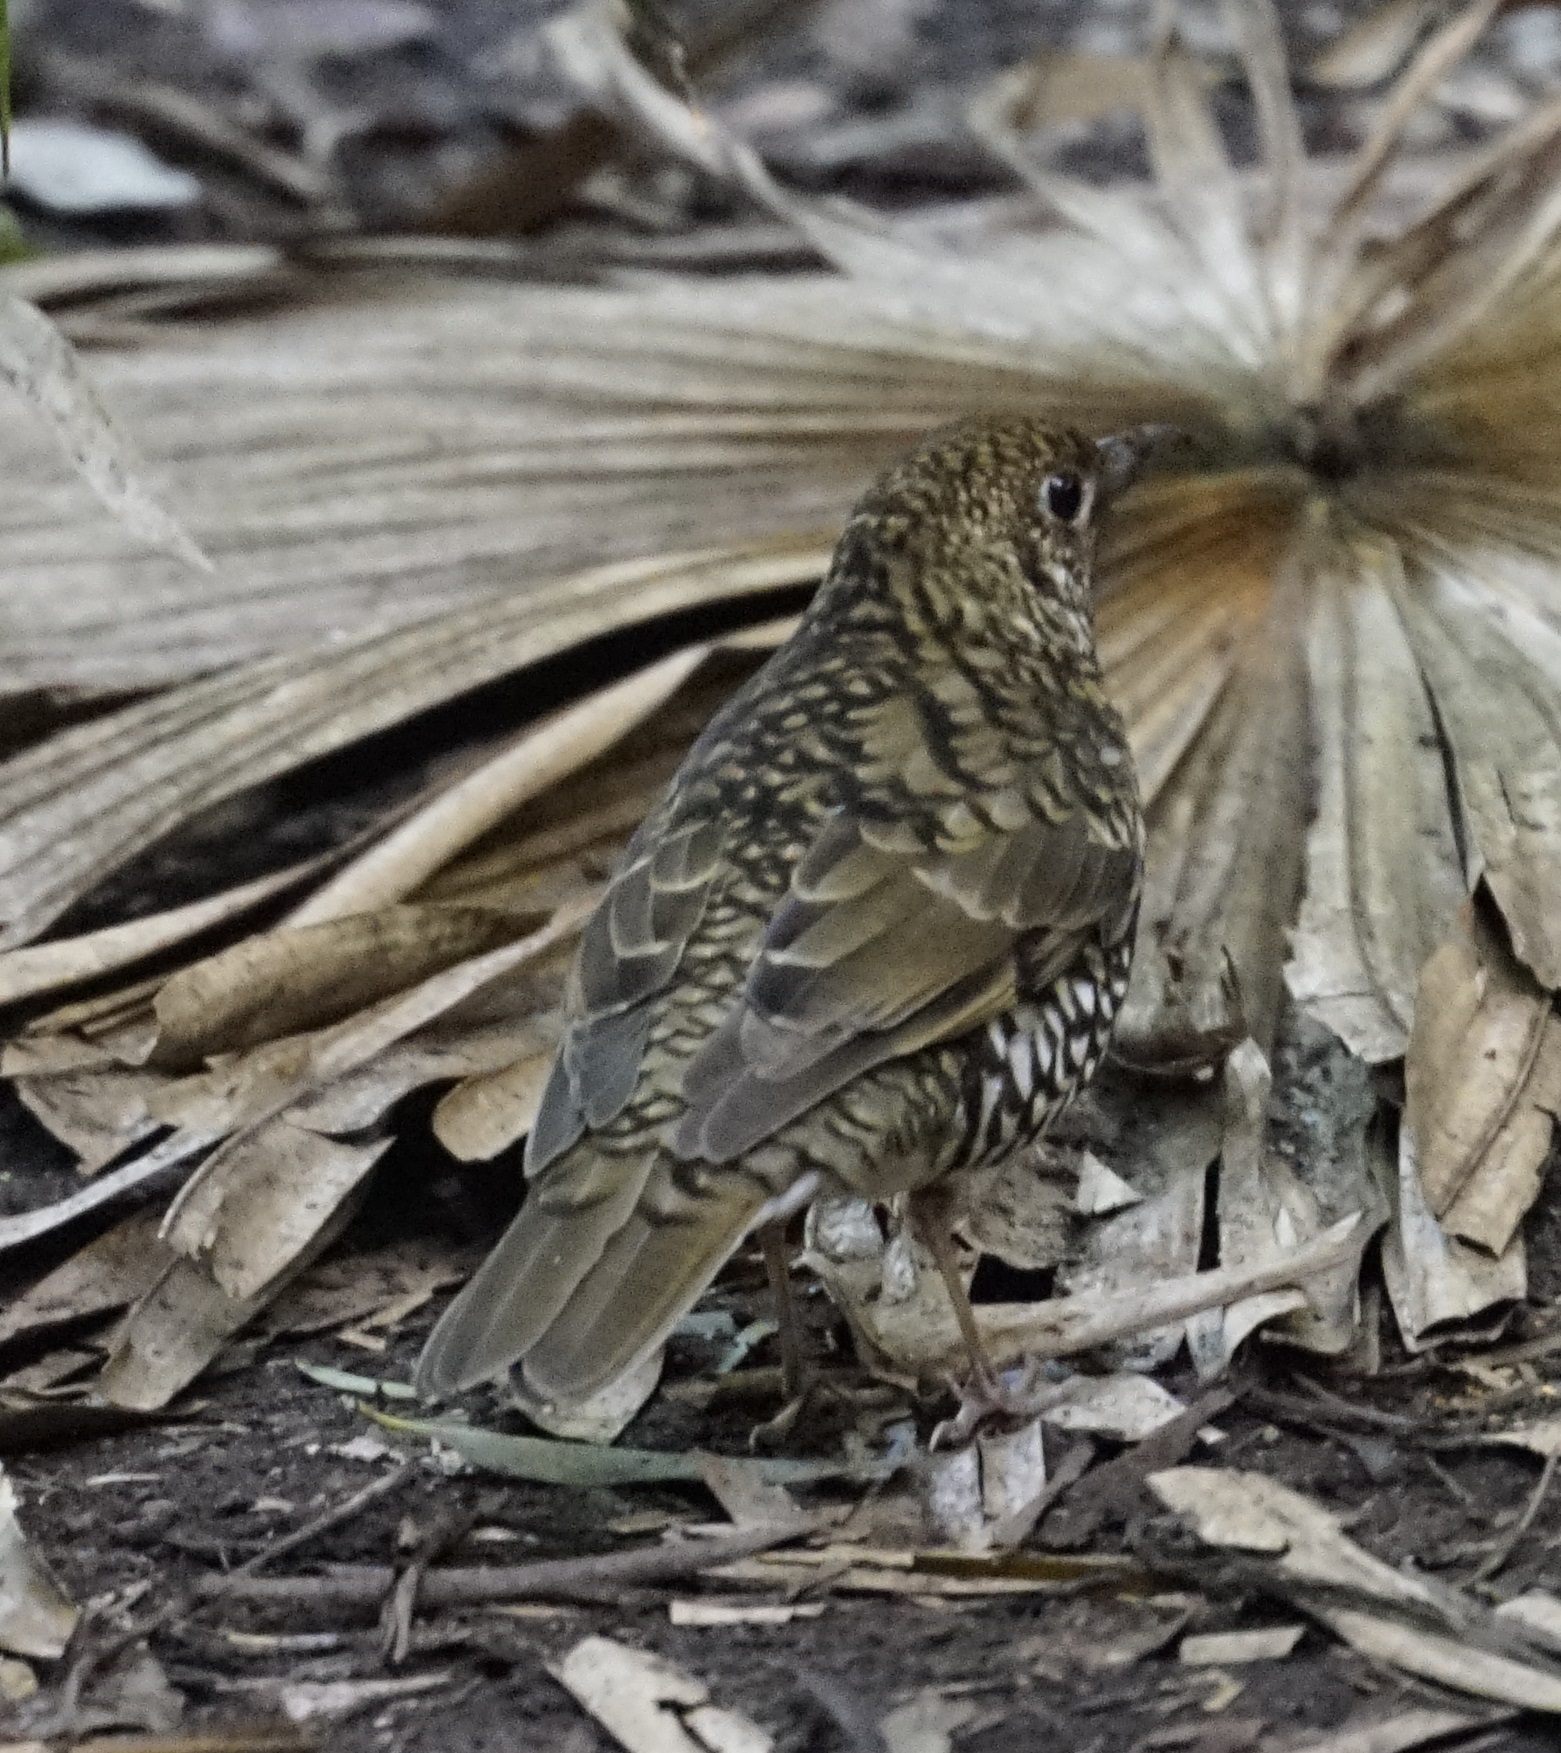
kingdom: Animalia
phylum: Chordata
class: Aves
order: Passeriformes
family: Turdidae
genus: Zoothera
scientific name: Zoothera lunulata
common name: Bassian thrush
